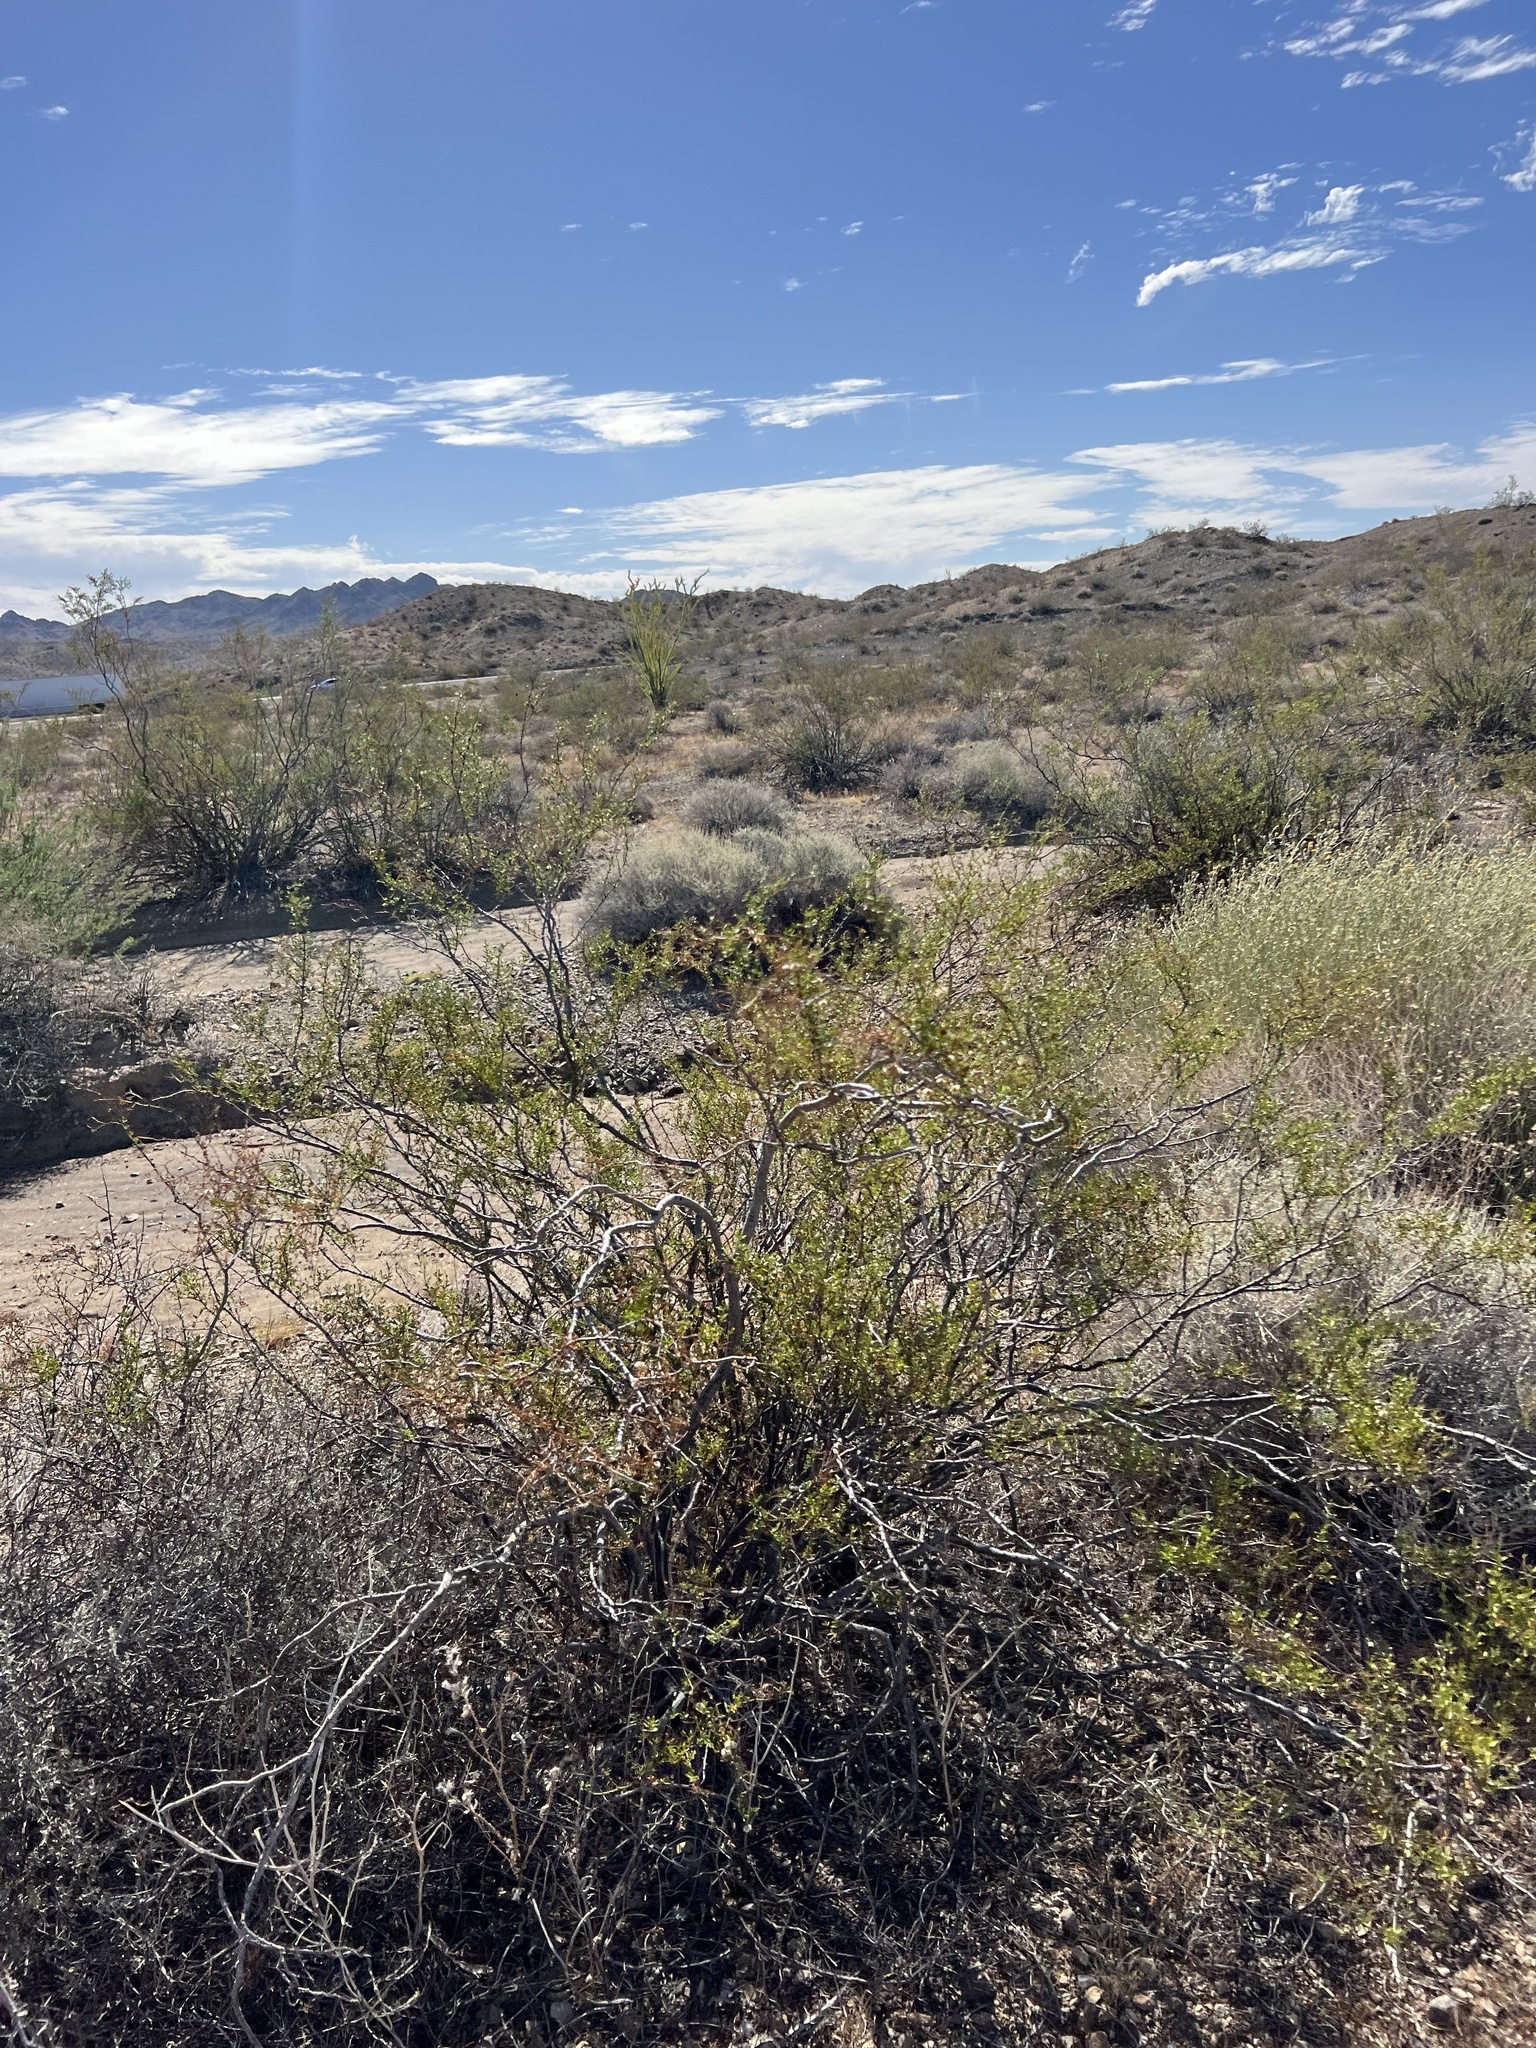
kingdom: Plantae
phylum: Tracheophyta
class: Magnoliopsida
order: Zygophyllales
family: Zygophyllaceae
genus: Larrea
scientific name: Larrea tridentata
